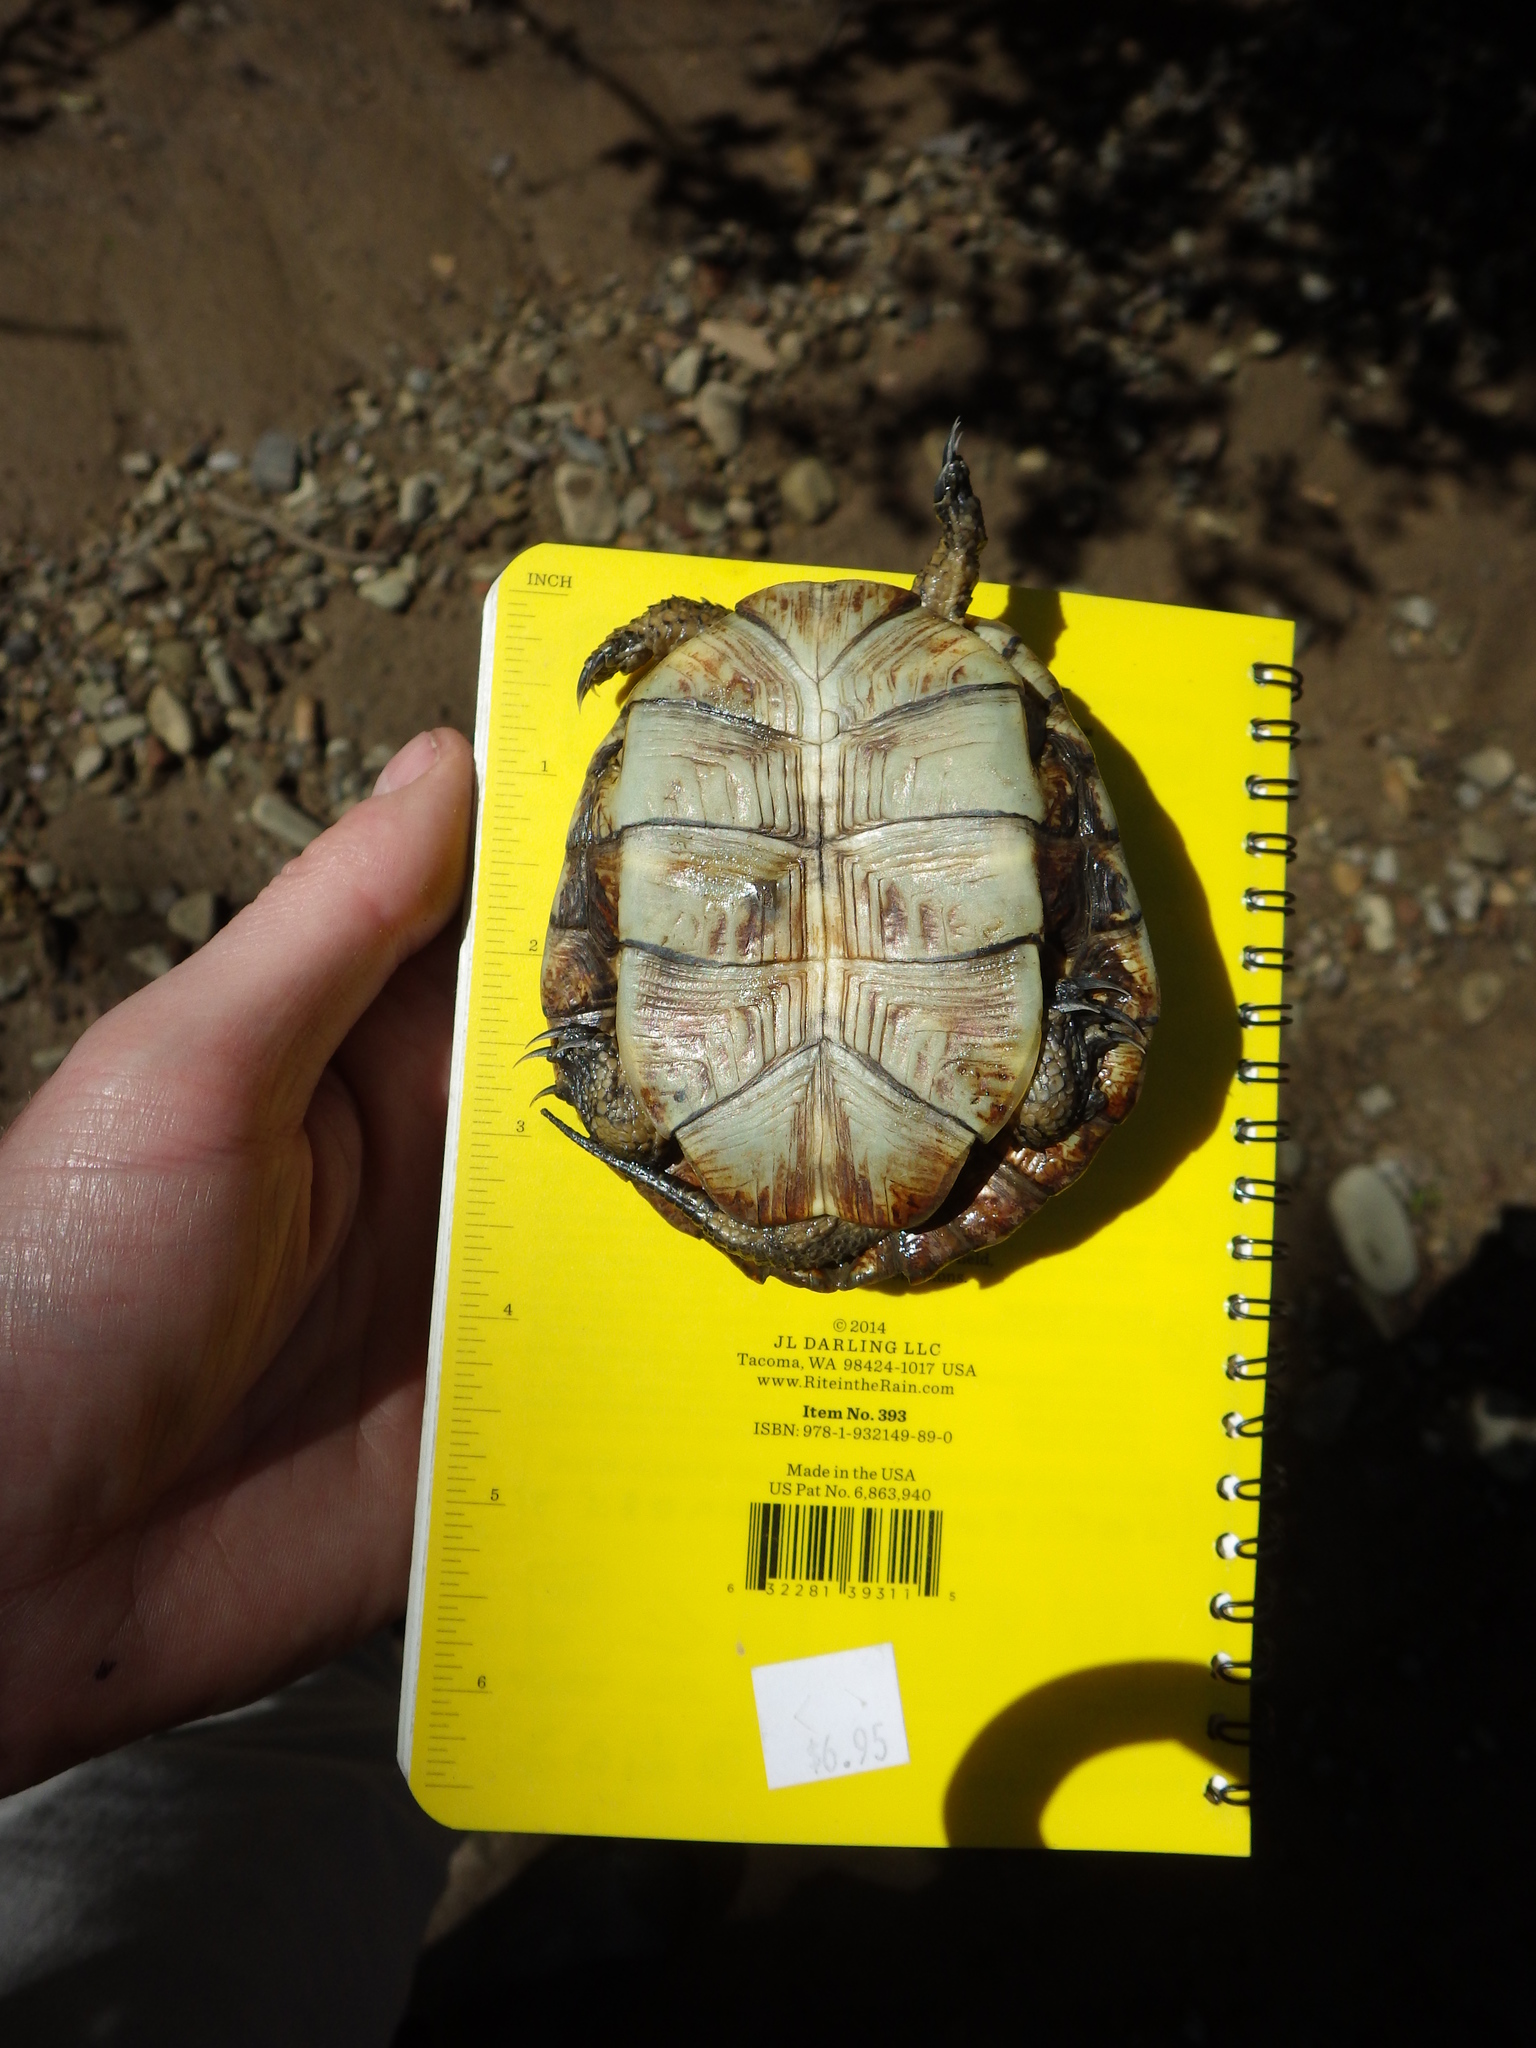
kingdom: Animalia
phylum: Chordata
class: Testudines
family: Emydidae
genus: Actinemys
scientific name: Actinemys marmorata
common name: Western pond turtle
